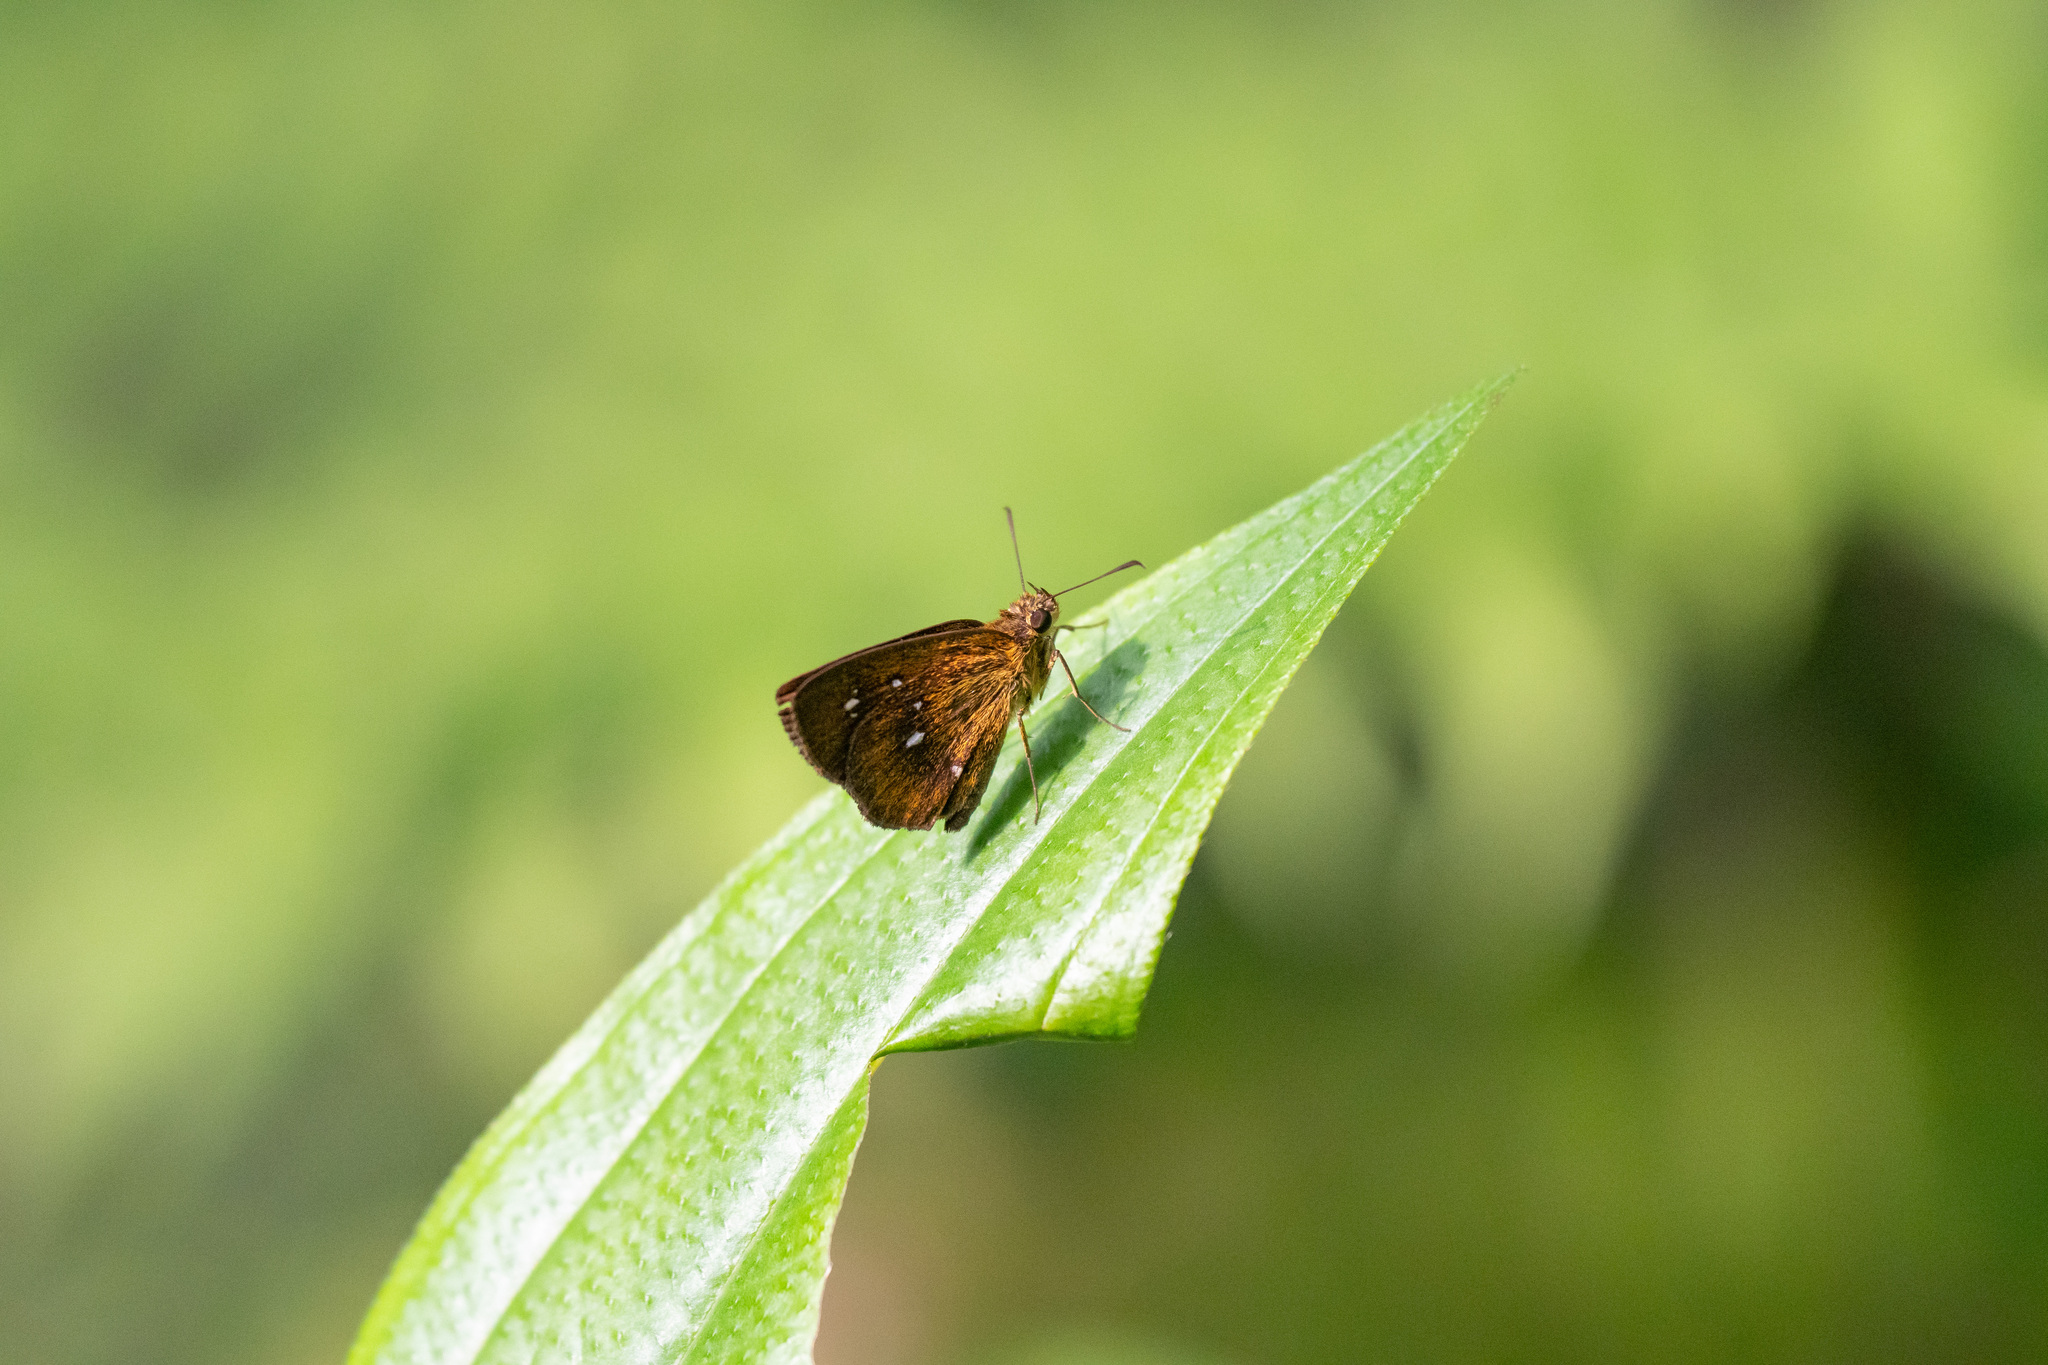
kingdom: Animalia
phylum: Arthropoda
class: Insecta
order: Lepidoptera
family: Hesperiidae
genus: Iambrix
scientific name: Iambrix salsala
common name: Chestnut bob
